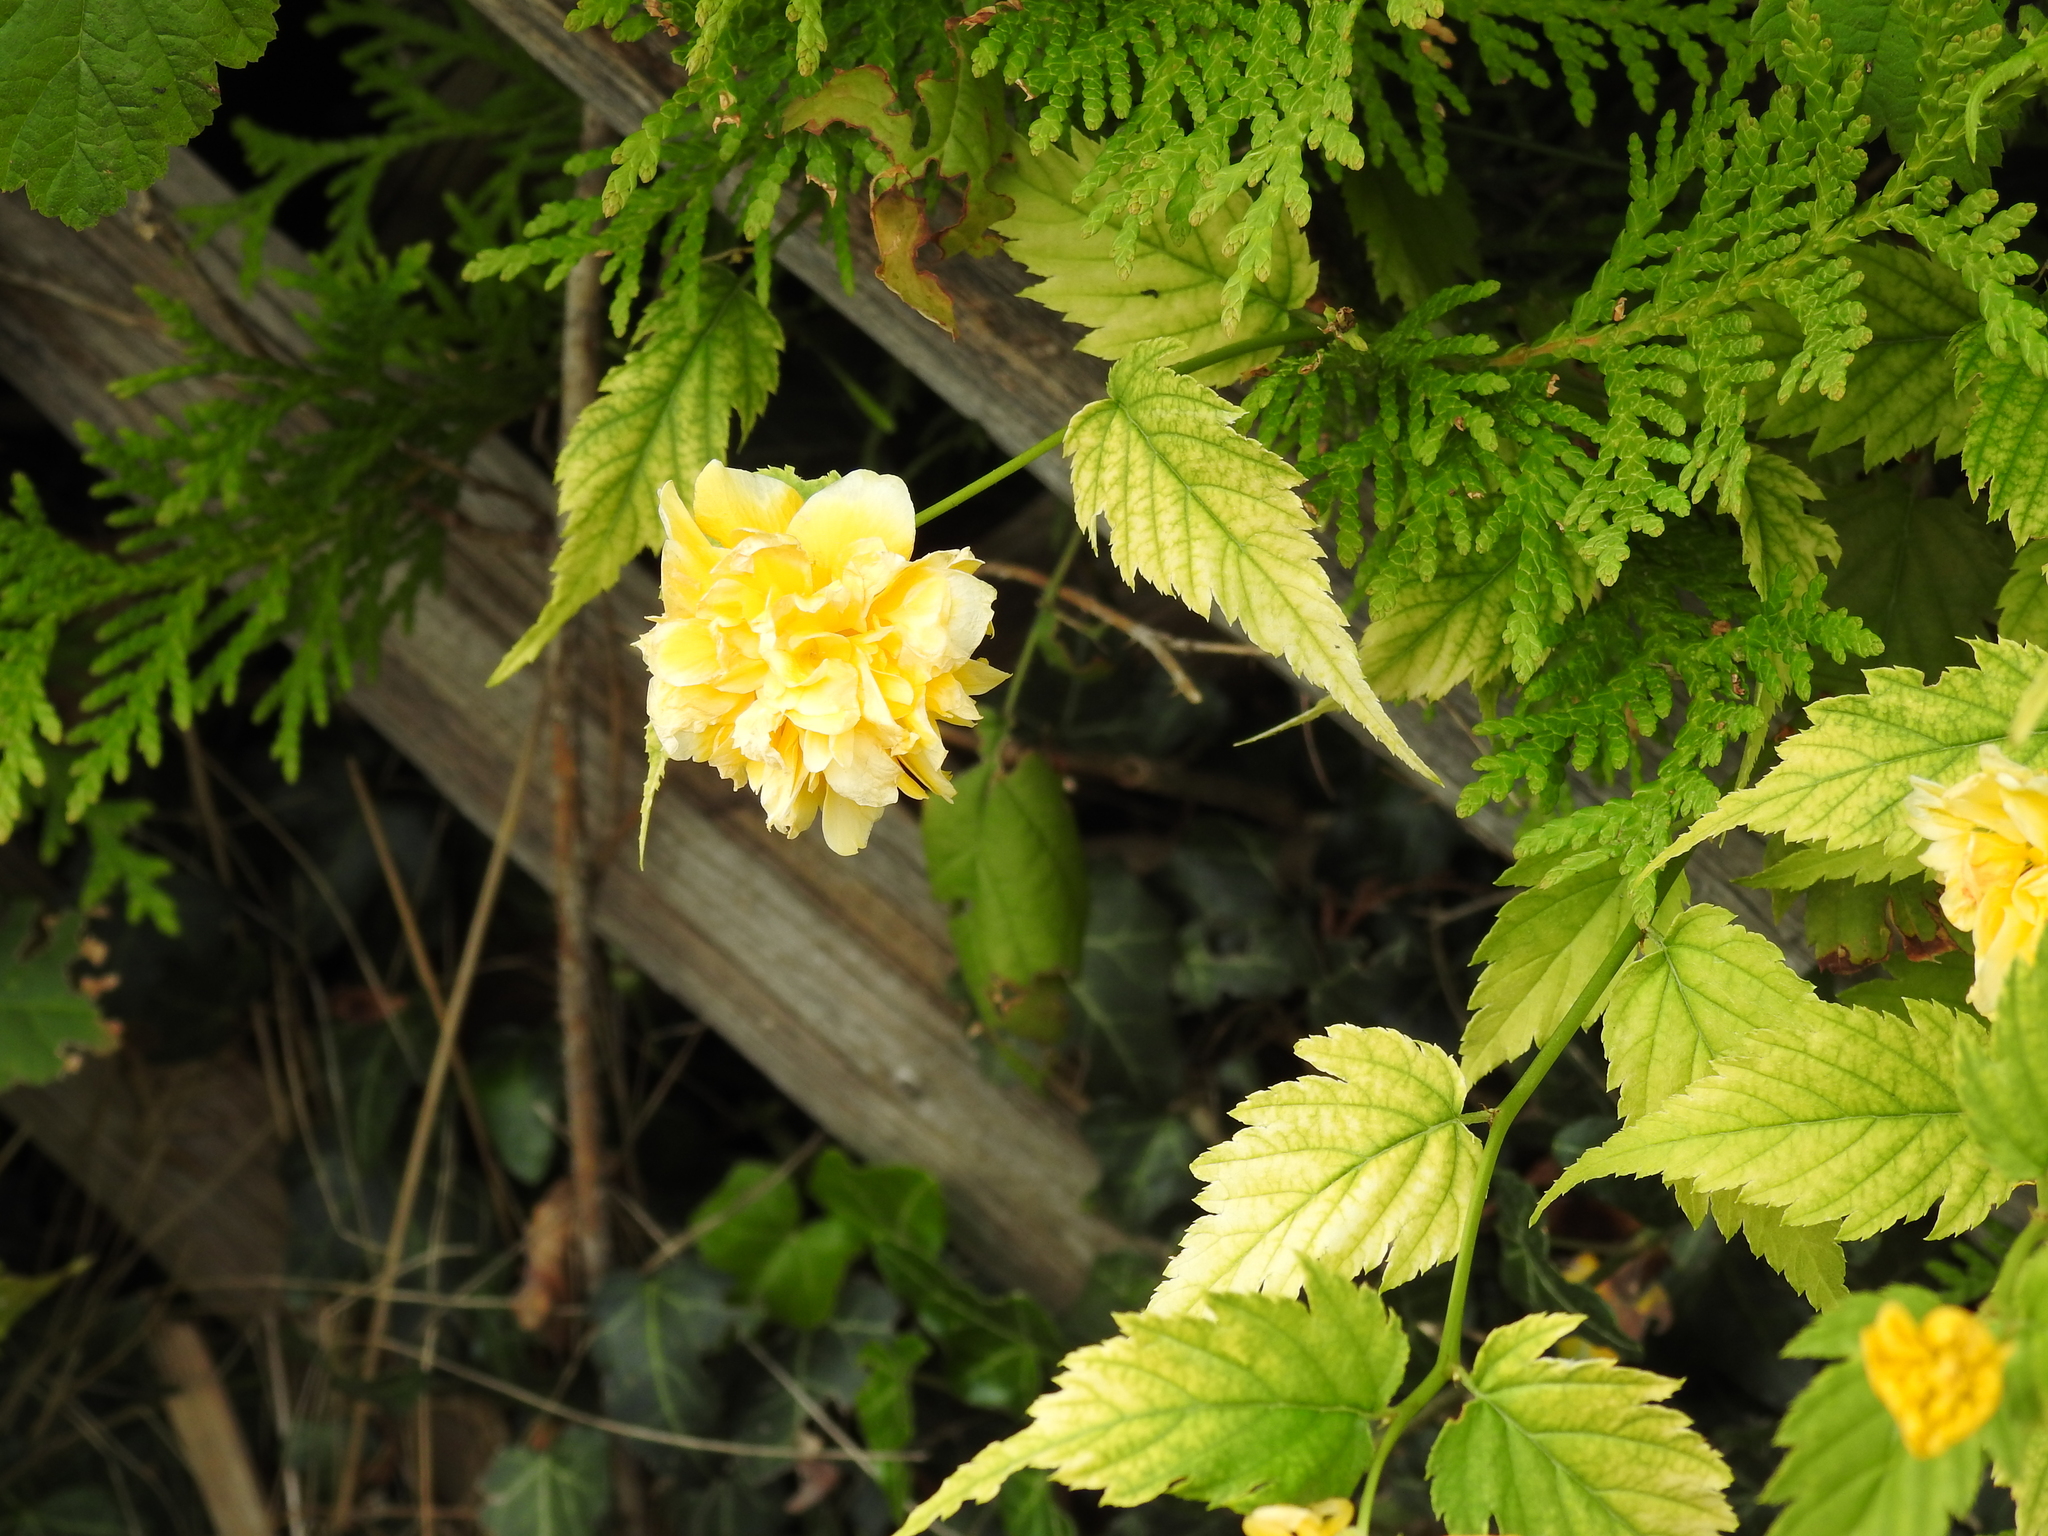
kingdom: Plantae
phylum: Tracheophyta
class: Magnoliopsida
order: Rosales
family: Rosaceae
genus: Kerria
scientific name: Kerria japonica
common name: Japanese kerria
